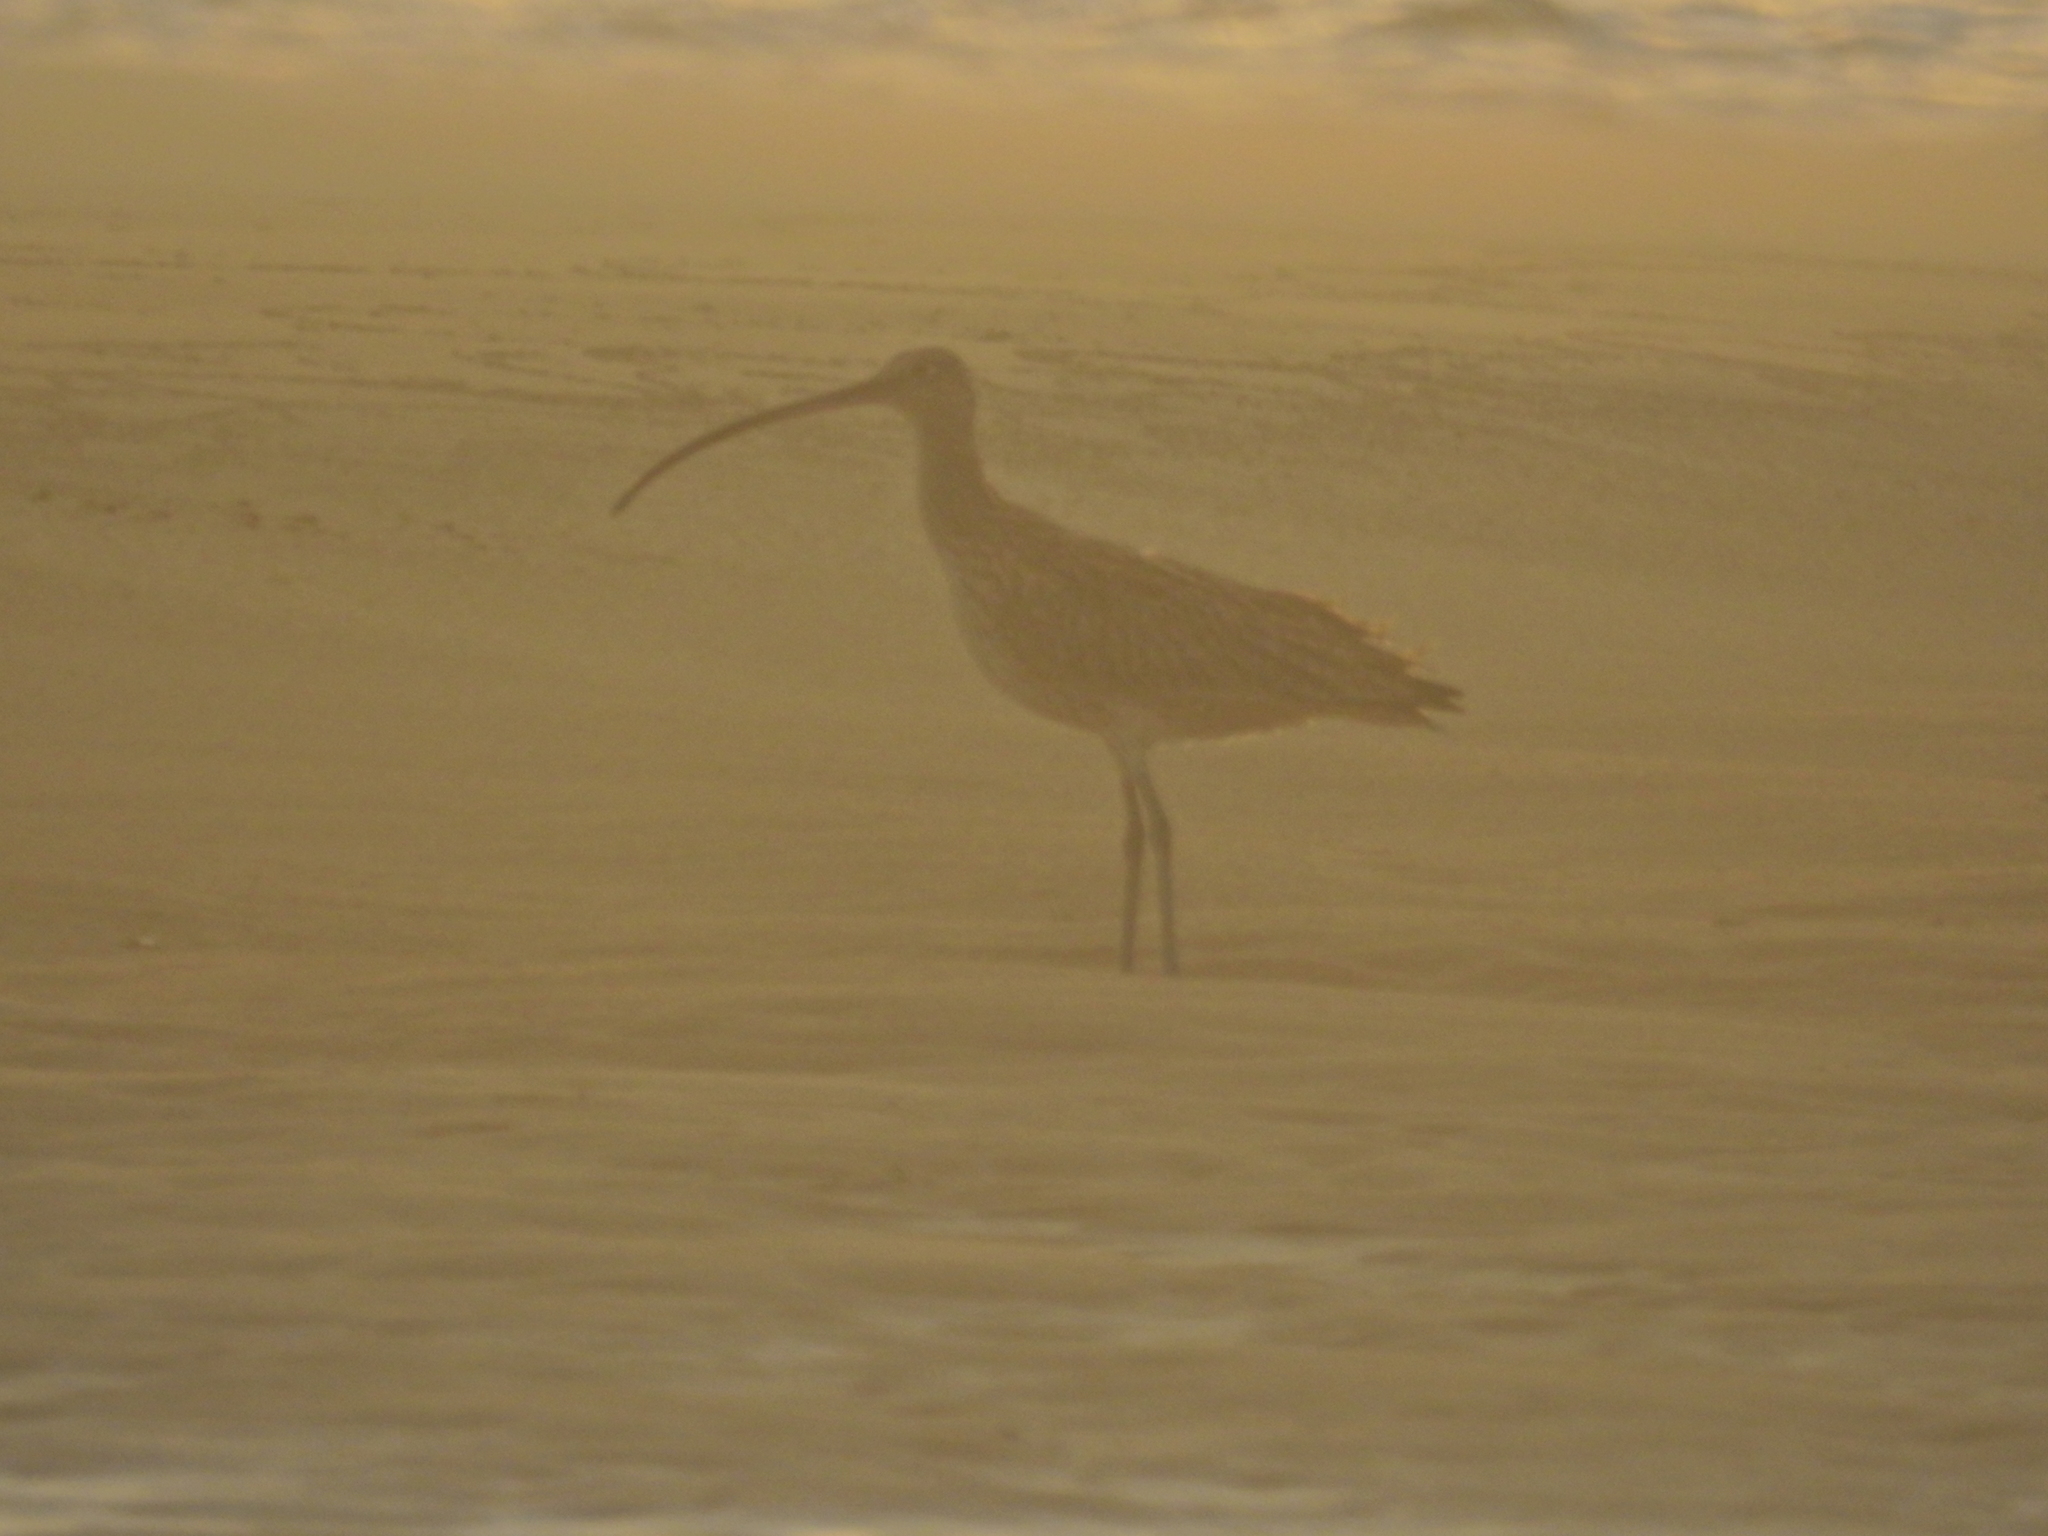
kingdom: Animalia
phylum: Chordata
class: Aves
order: Charadriiformes
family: Scolopacidae
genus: Numenius
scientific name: Numenius madagascariensis
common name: Far eastern curlew
